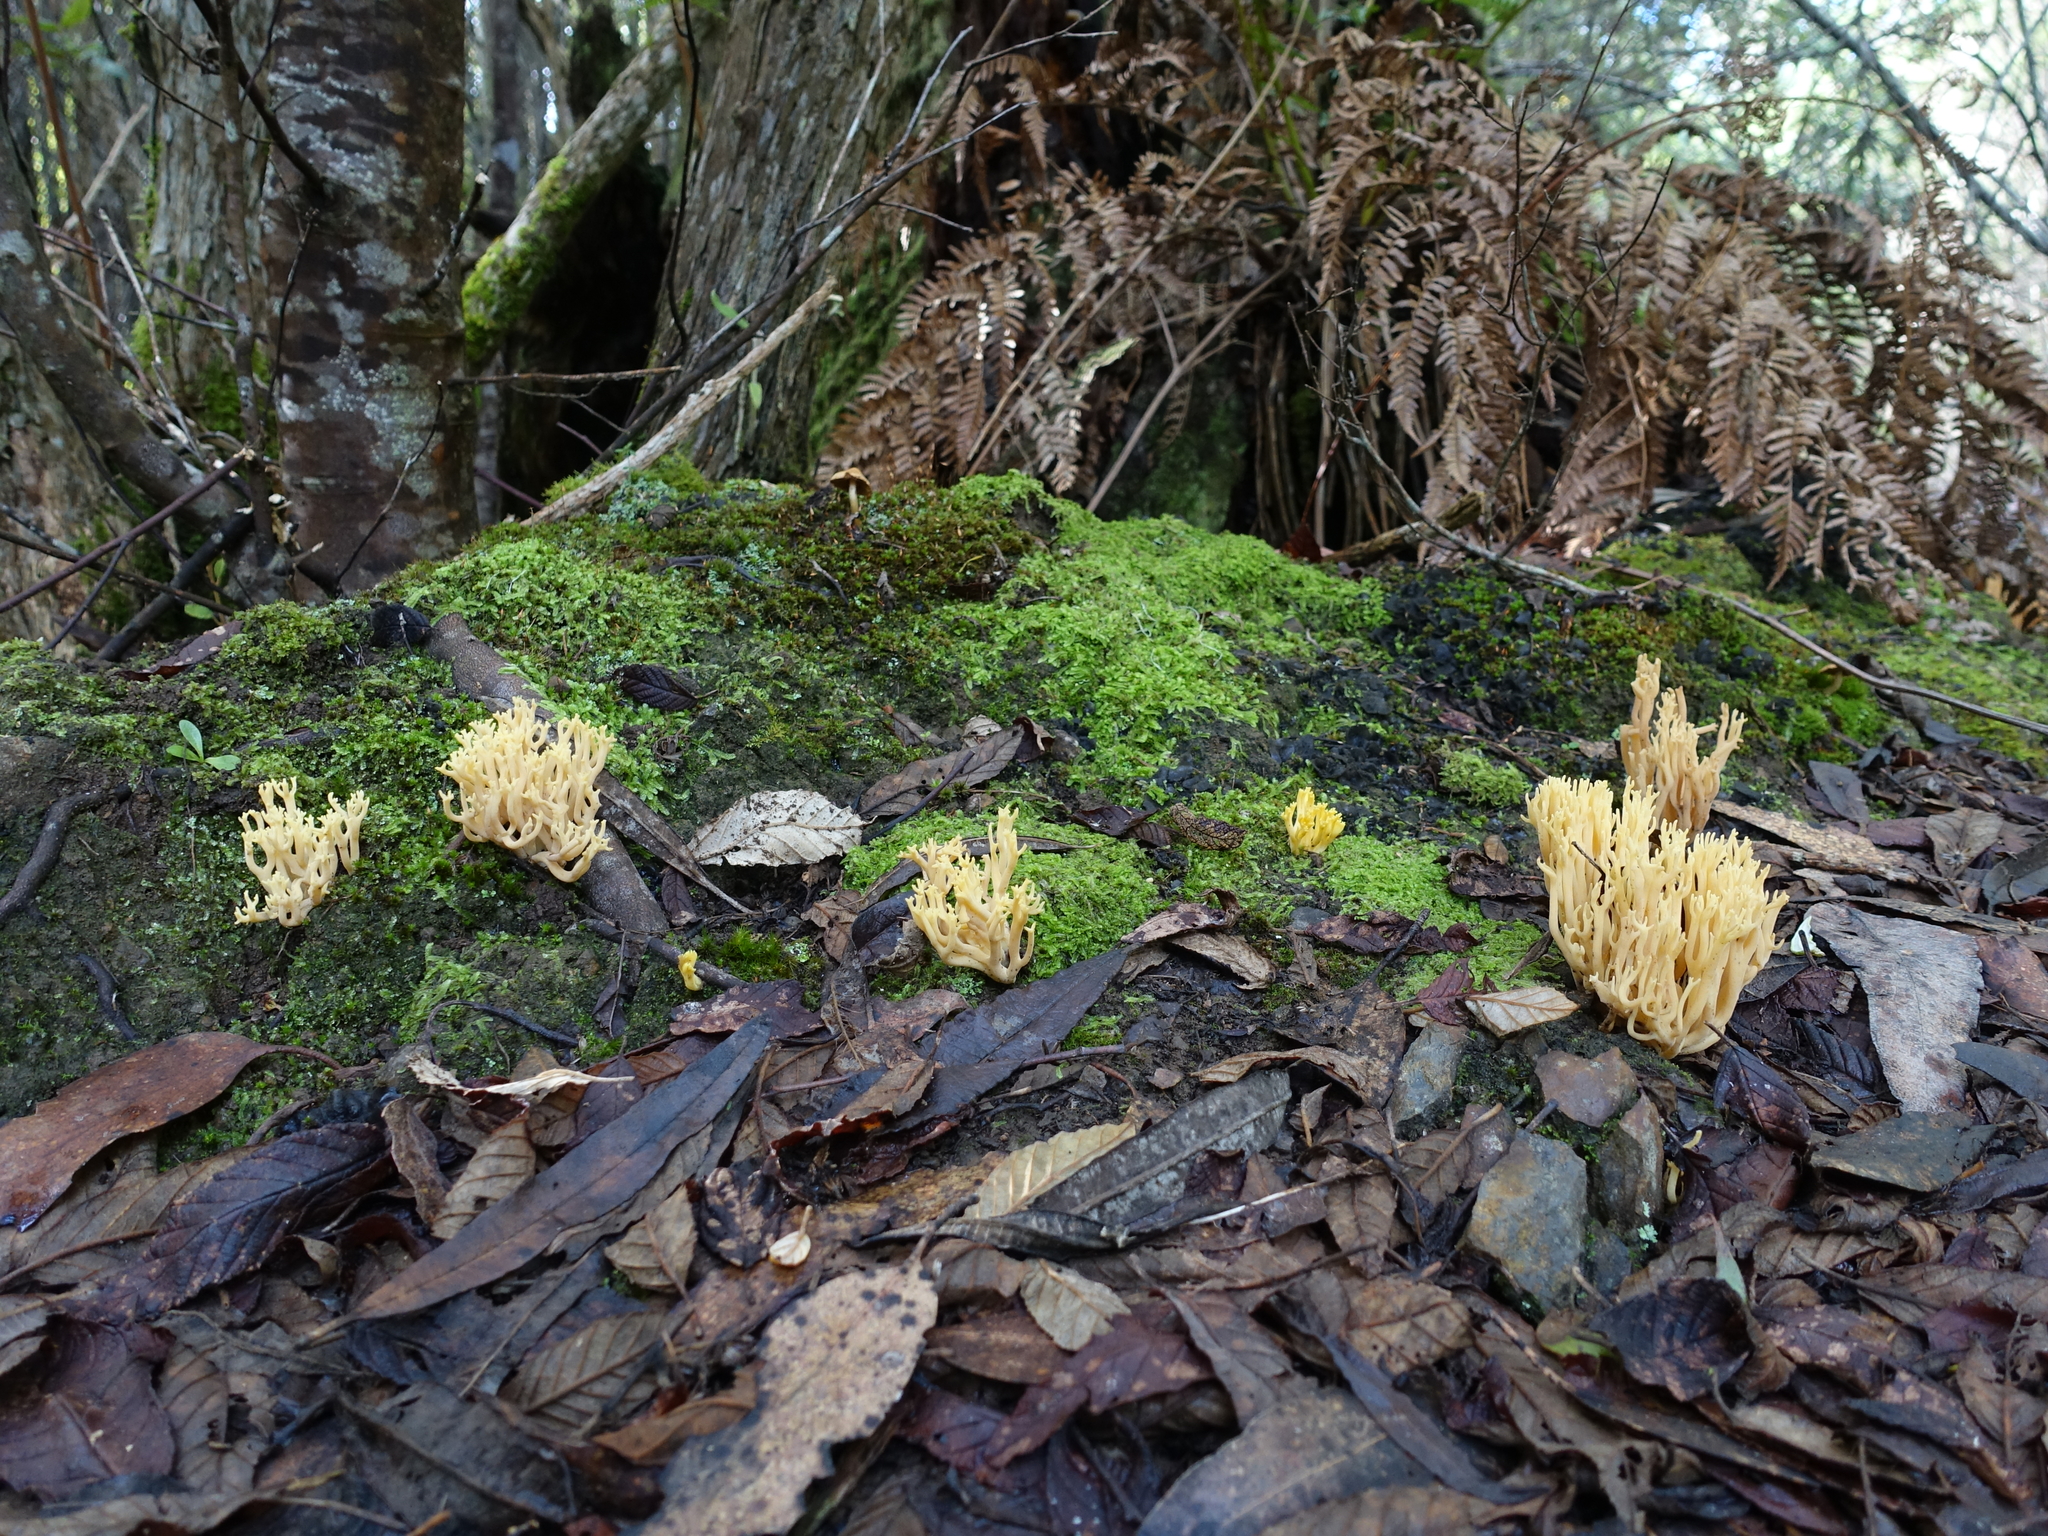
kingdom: Fungi
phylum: Basidiomycota
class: Agaricomycetes
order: Gomphales
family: Gomphaceae
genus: Ramaria
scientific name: Ramaria lorithamnus
